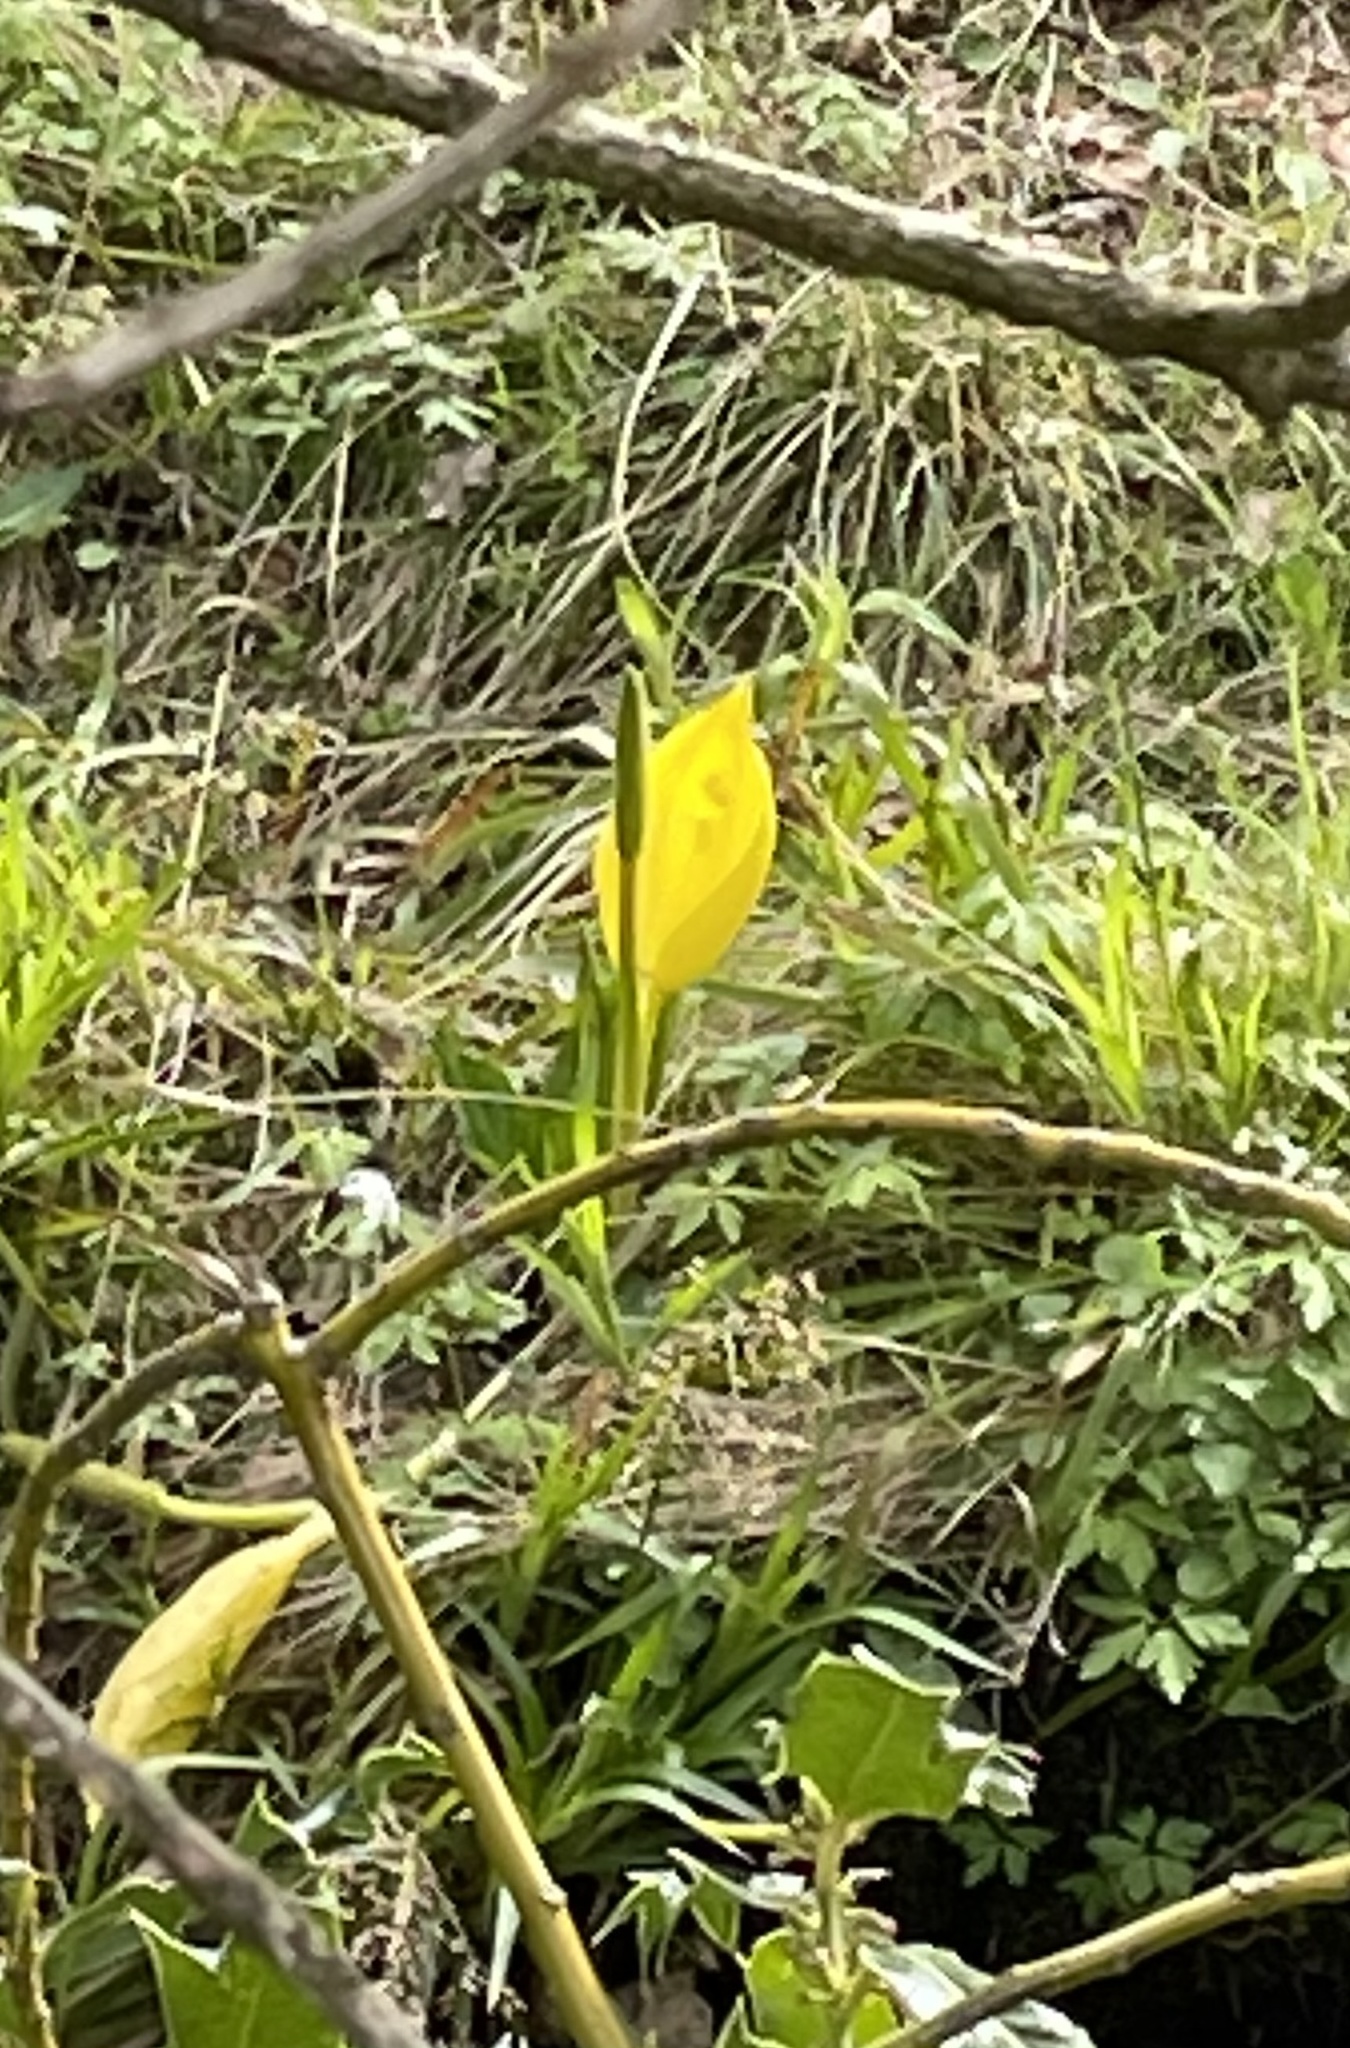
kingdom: Plantae
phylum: Tracheophyta
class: Liliopsida
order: Alismatales
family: Araceae
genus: Lysichiton
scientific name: Lysichiton americanus
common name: American skunk cabbage
